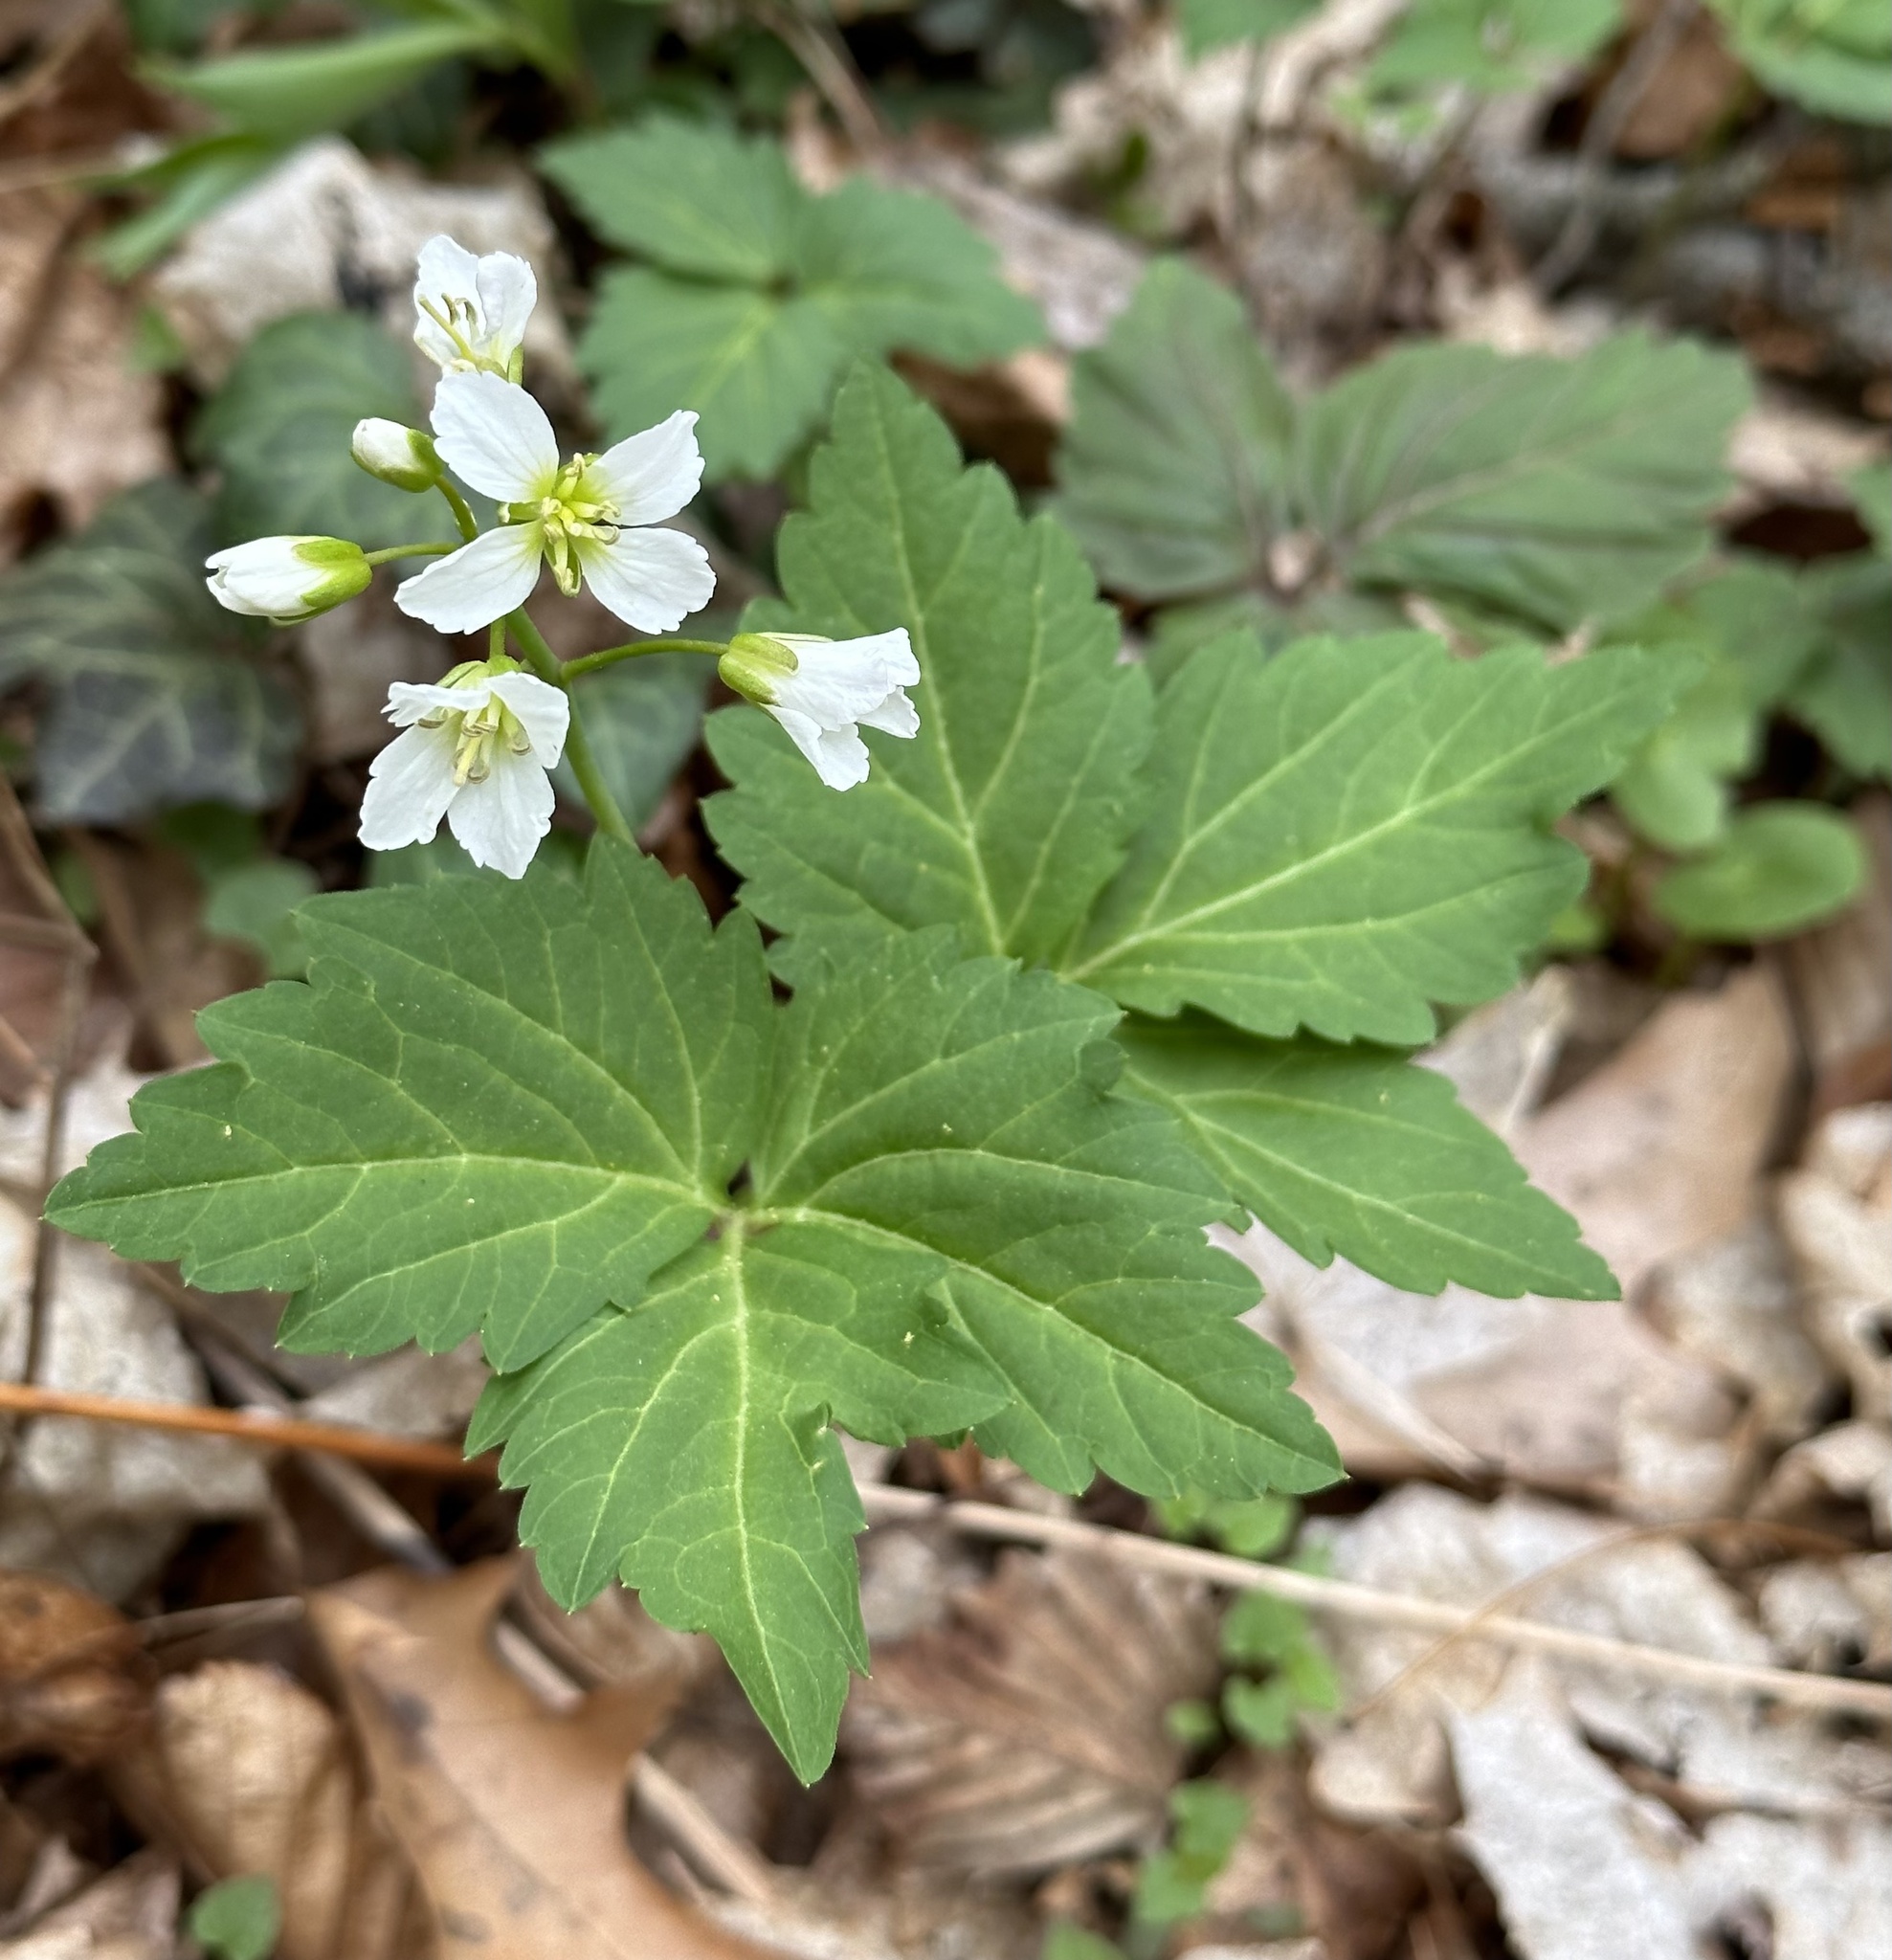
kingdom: Plantae
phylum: Tracheophyta
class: Magnoliopsida
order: Brassicales
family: Brassicaceae
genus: Cardamine
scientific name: Cardamine diphylla
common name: Broad-leaved toothwort
